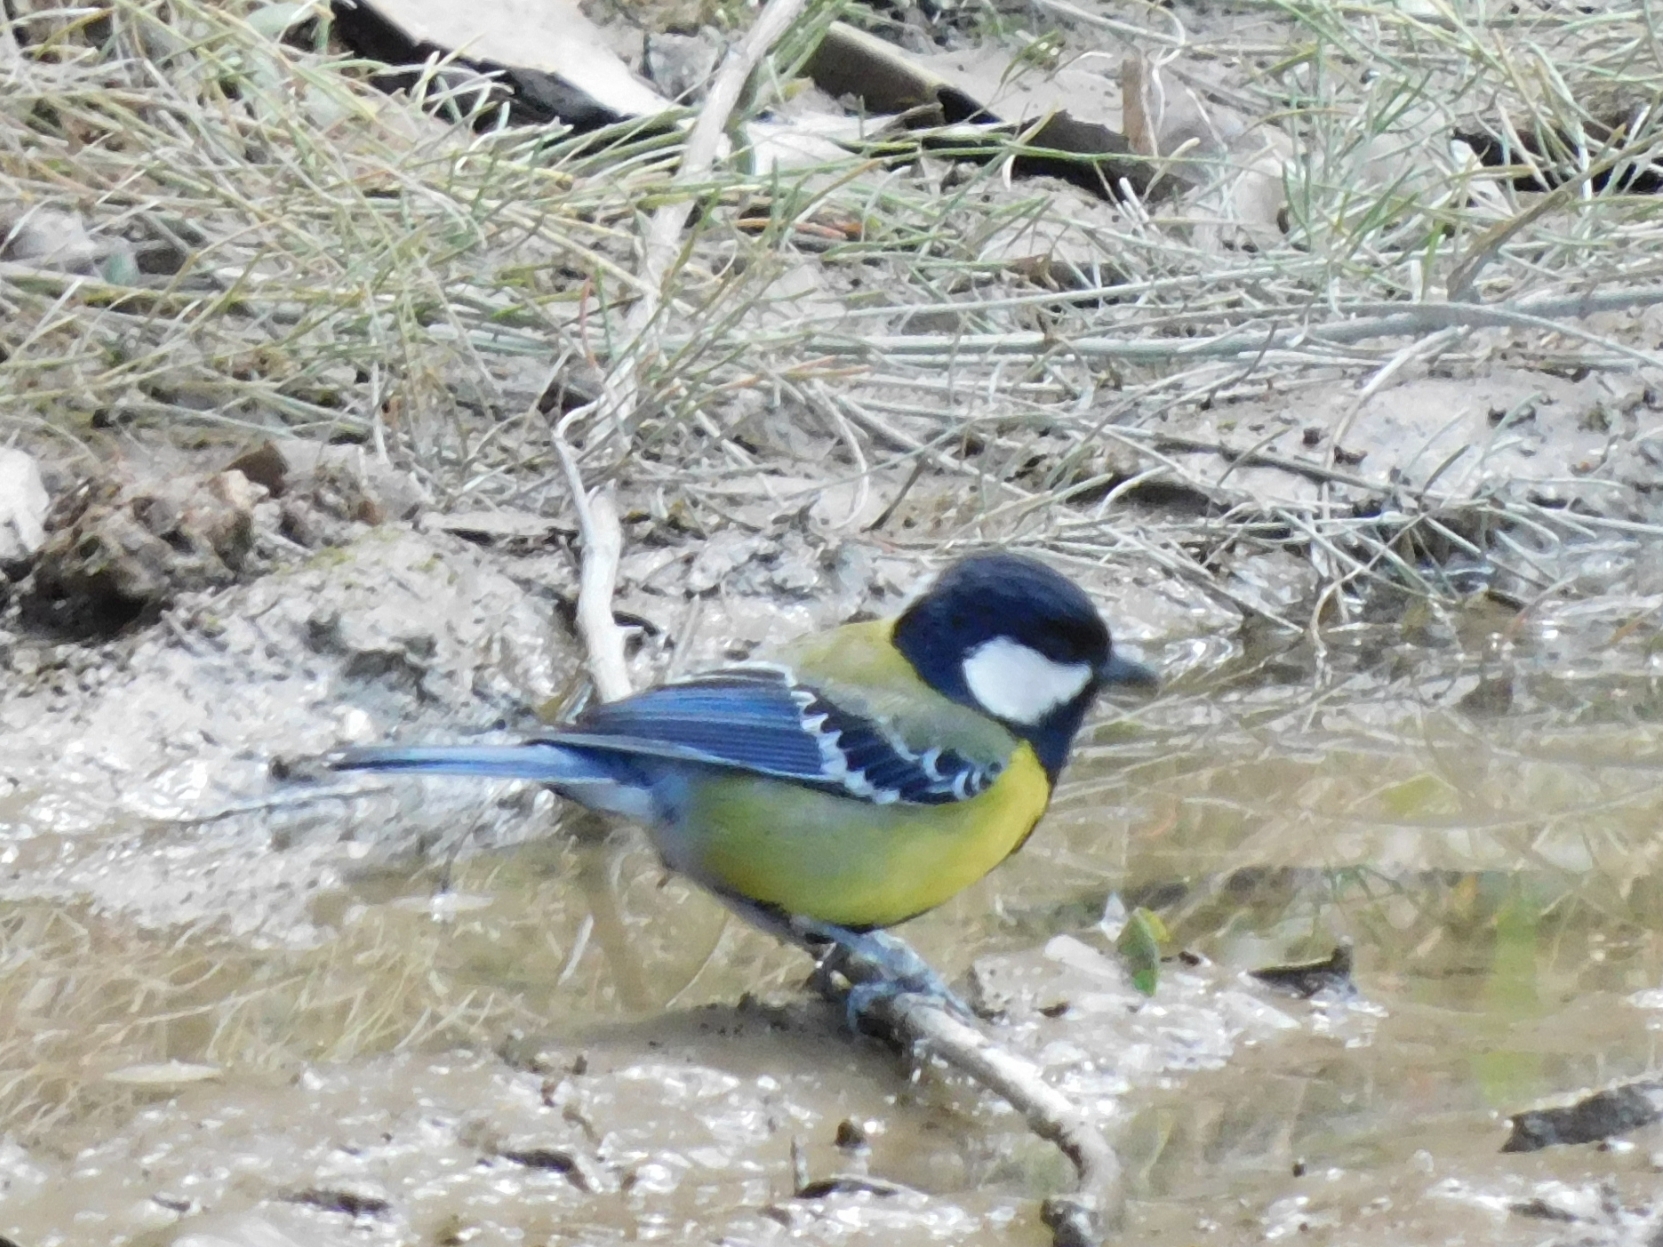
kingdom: Animalia
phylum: Chordata
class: Aves
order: Passeriformes
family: Paridae
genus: Parus
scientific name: Parus monticolus
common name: Green-backed tit
